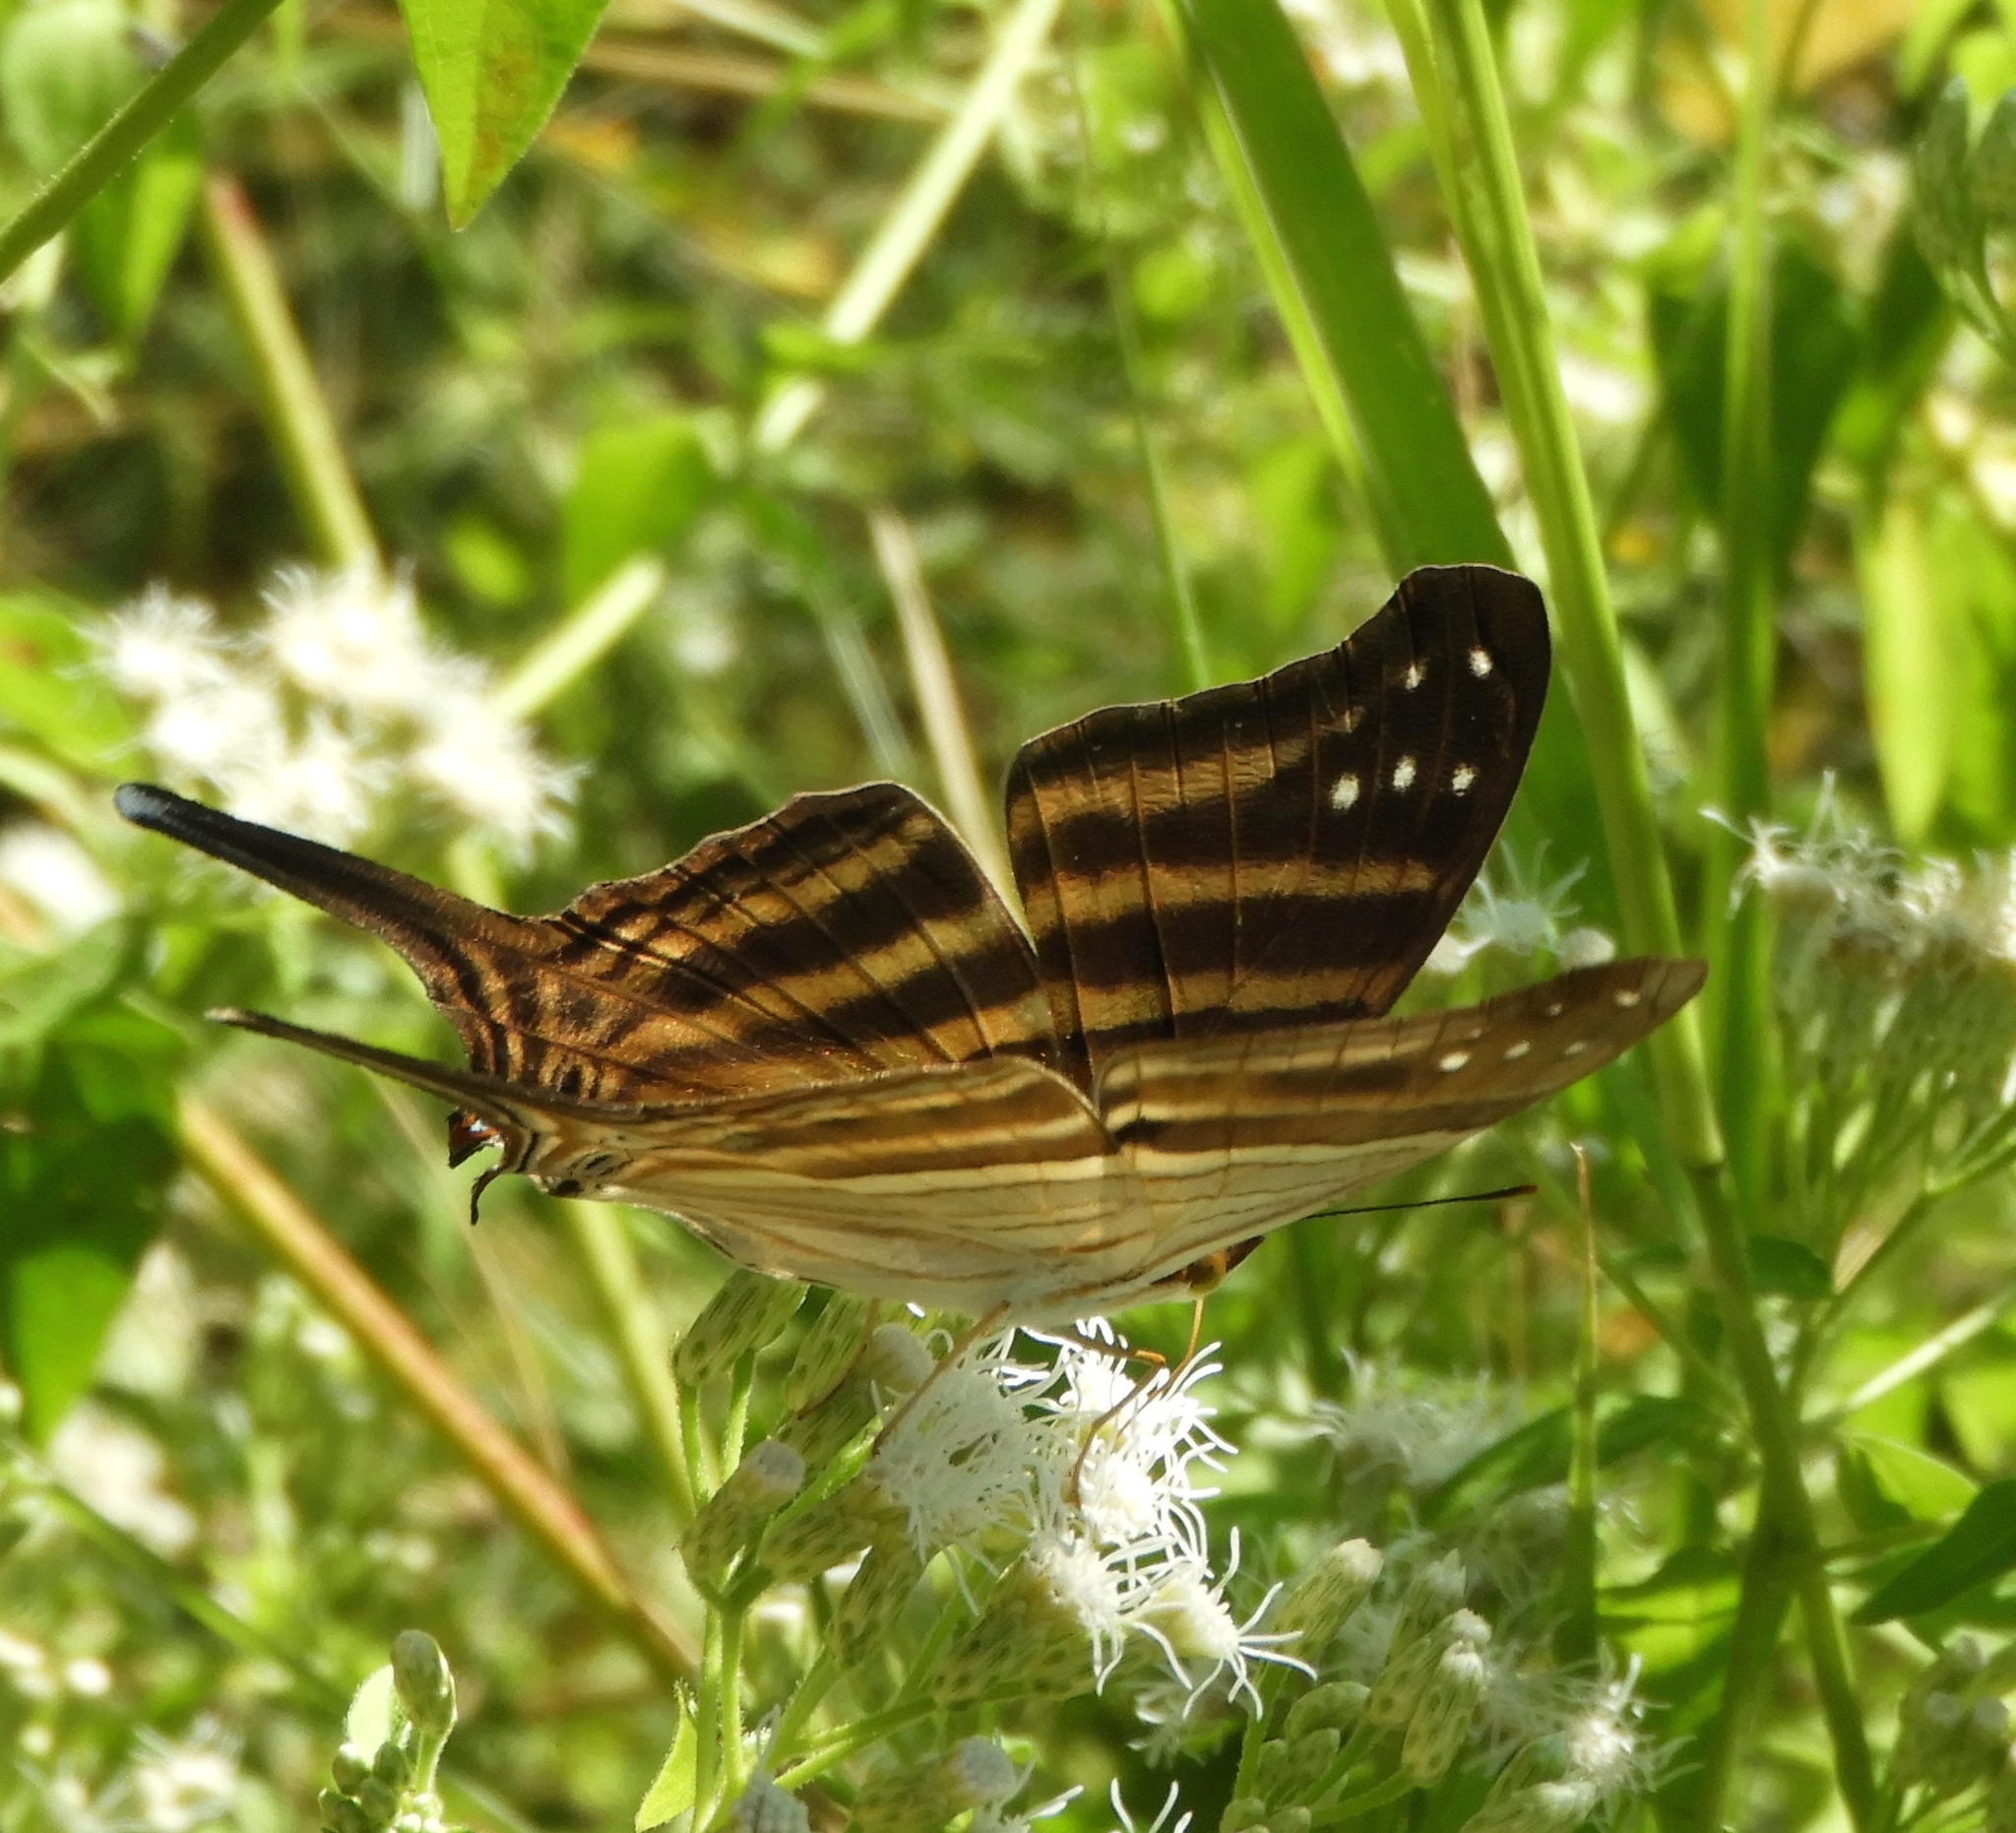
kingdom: Animalia
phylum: Arthropoda
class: Insecta
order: Lepidoptera
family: Nymphalidae
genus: Marpesia
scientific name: Marpesia chiron
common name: Many-banded daggerwing
